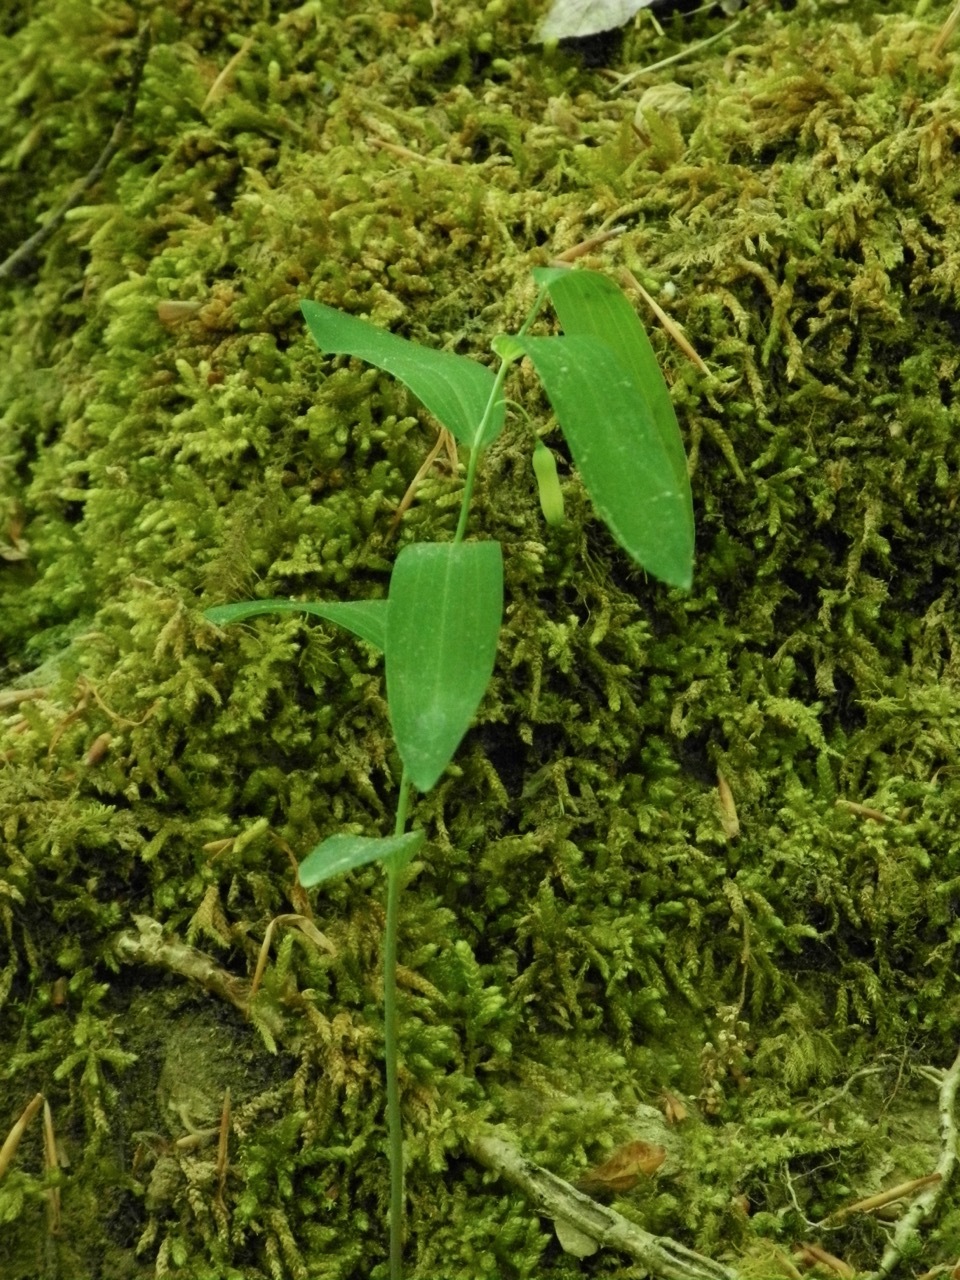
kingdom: Plantae
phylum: Tracheophyta
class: Liliopsida
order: Asparagales
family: Asparagaceae
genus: Polygonatum
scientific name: Polygonatum biflorum
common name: American solomon's-seal
